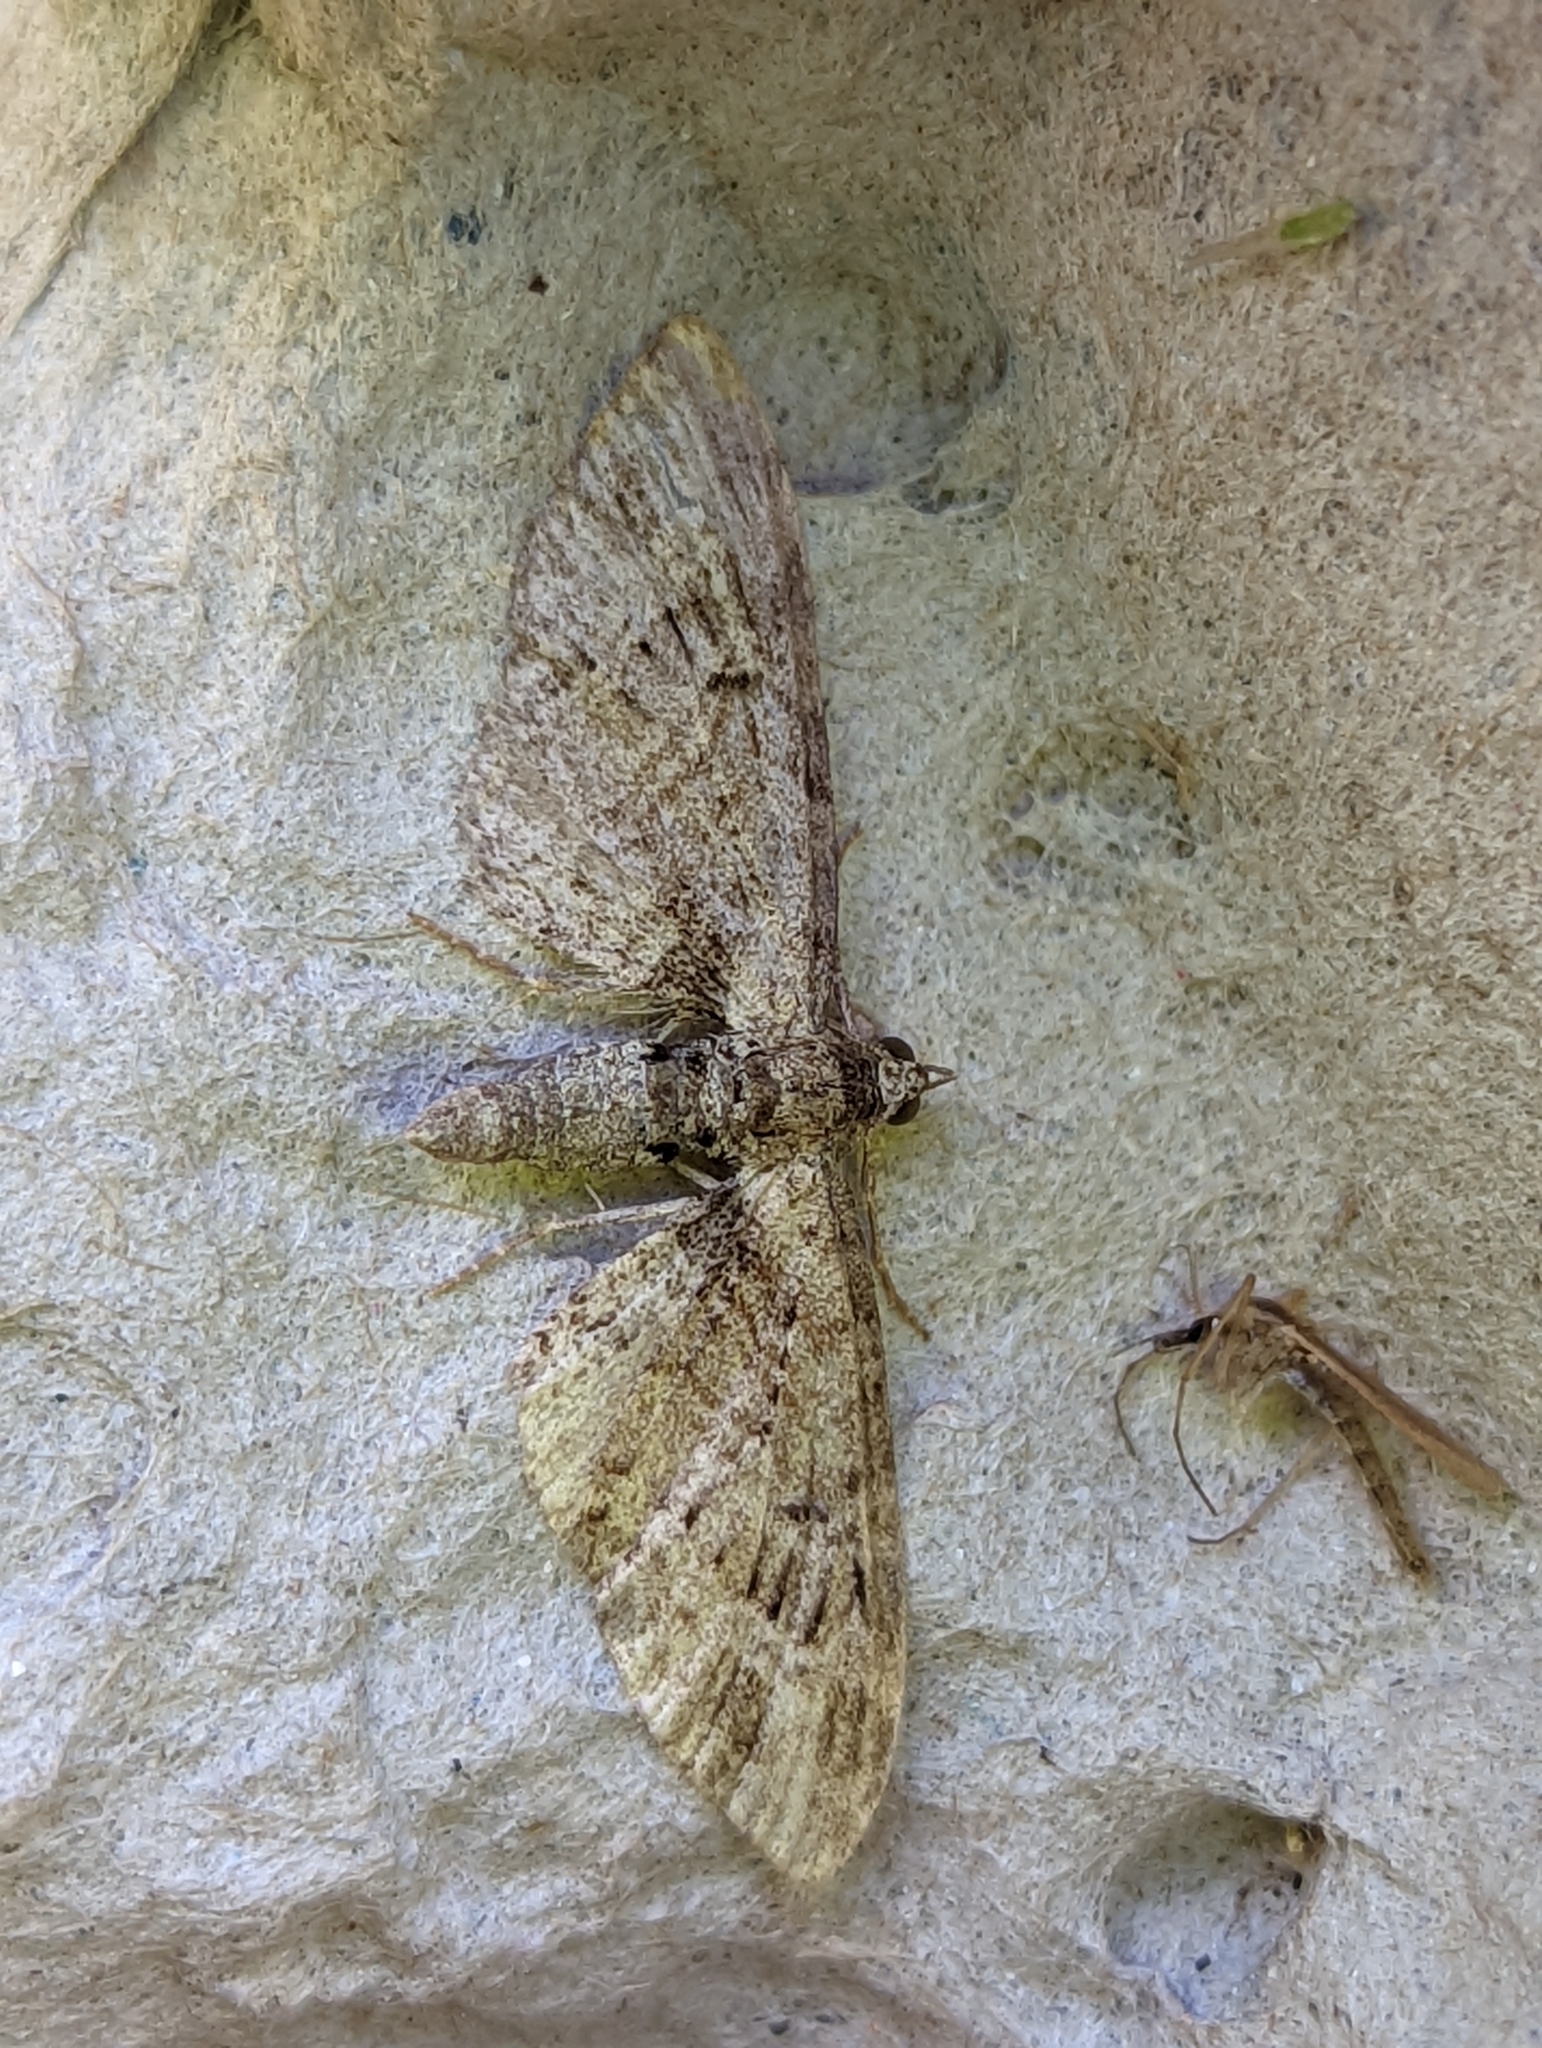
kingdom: Animalia
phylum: Arthropoda
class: Insecta
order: Lepidoptera
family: Geometridae
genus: Eupithecia
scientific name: Eupithecia exiguata
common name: Mottled pug
